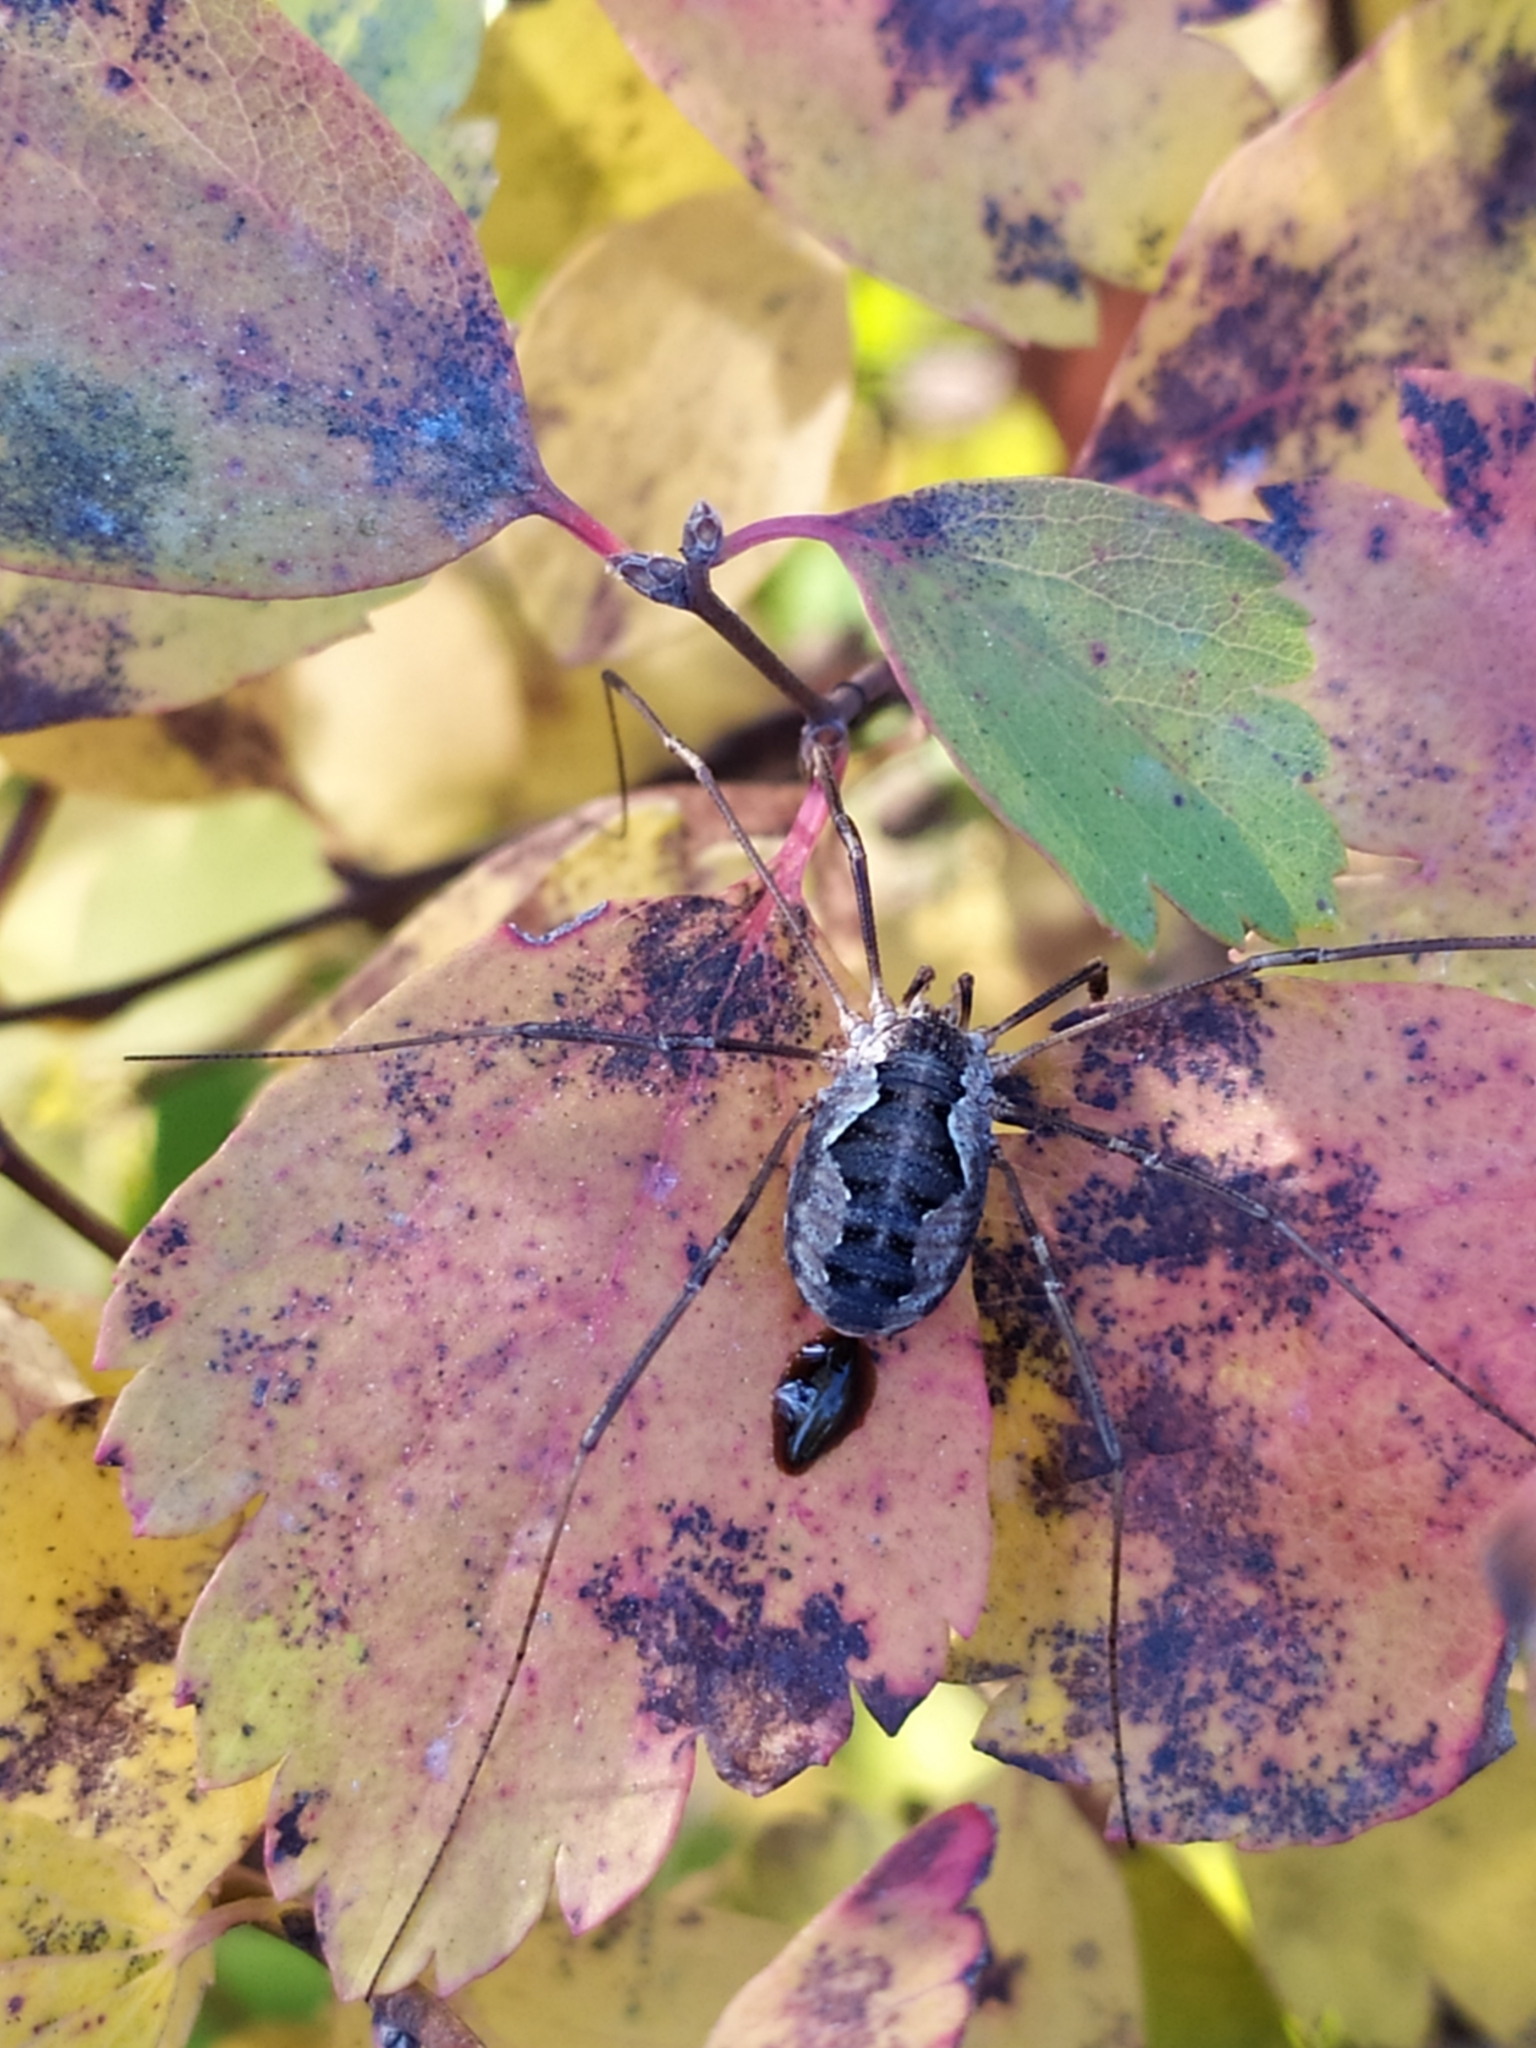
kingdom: Animalia
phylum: Arthropoda
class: Arachnida
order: Opiliones
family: Phalangiidae
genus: Phalangium
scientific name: Phalangium opilio
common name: Daddy longleg
